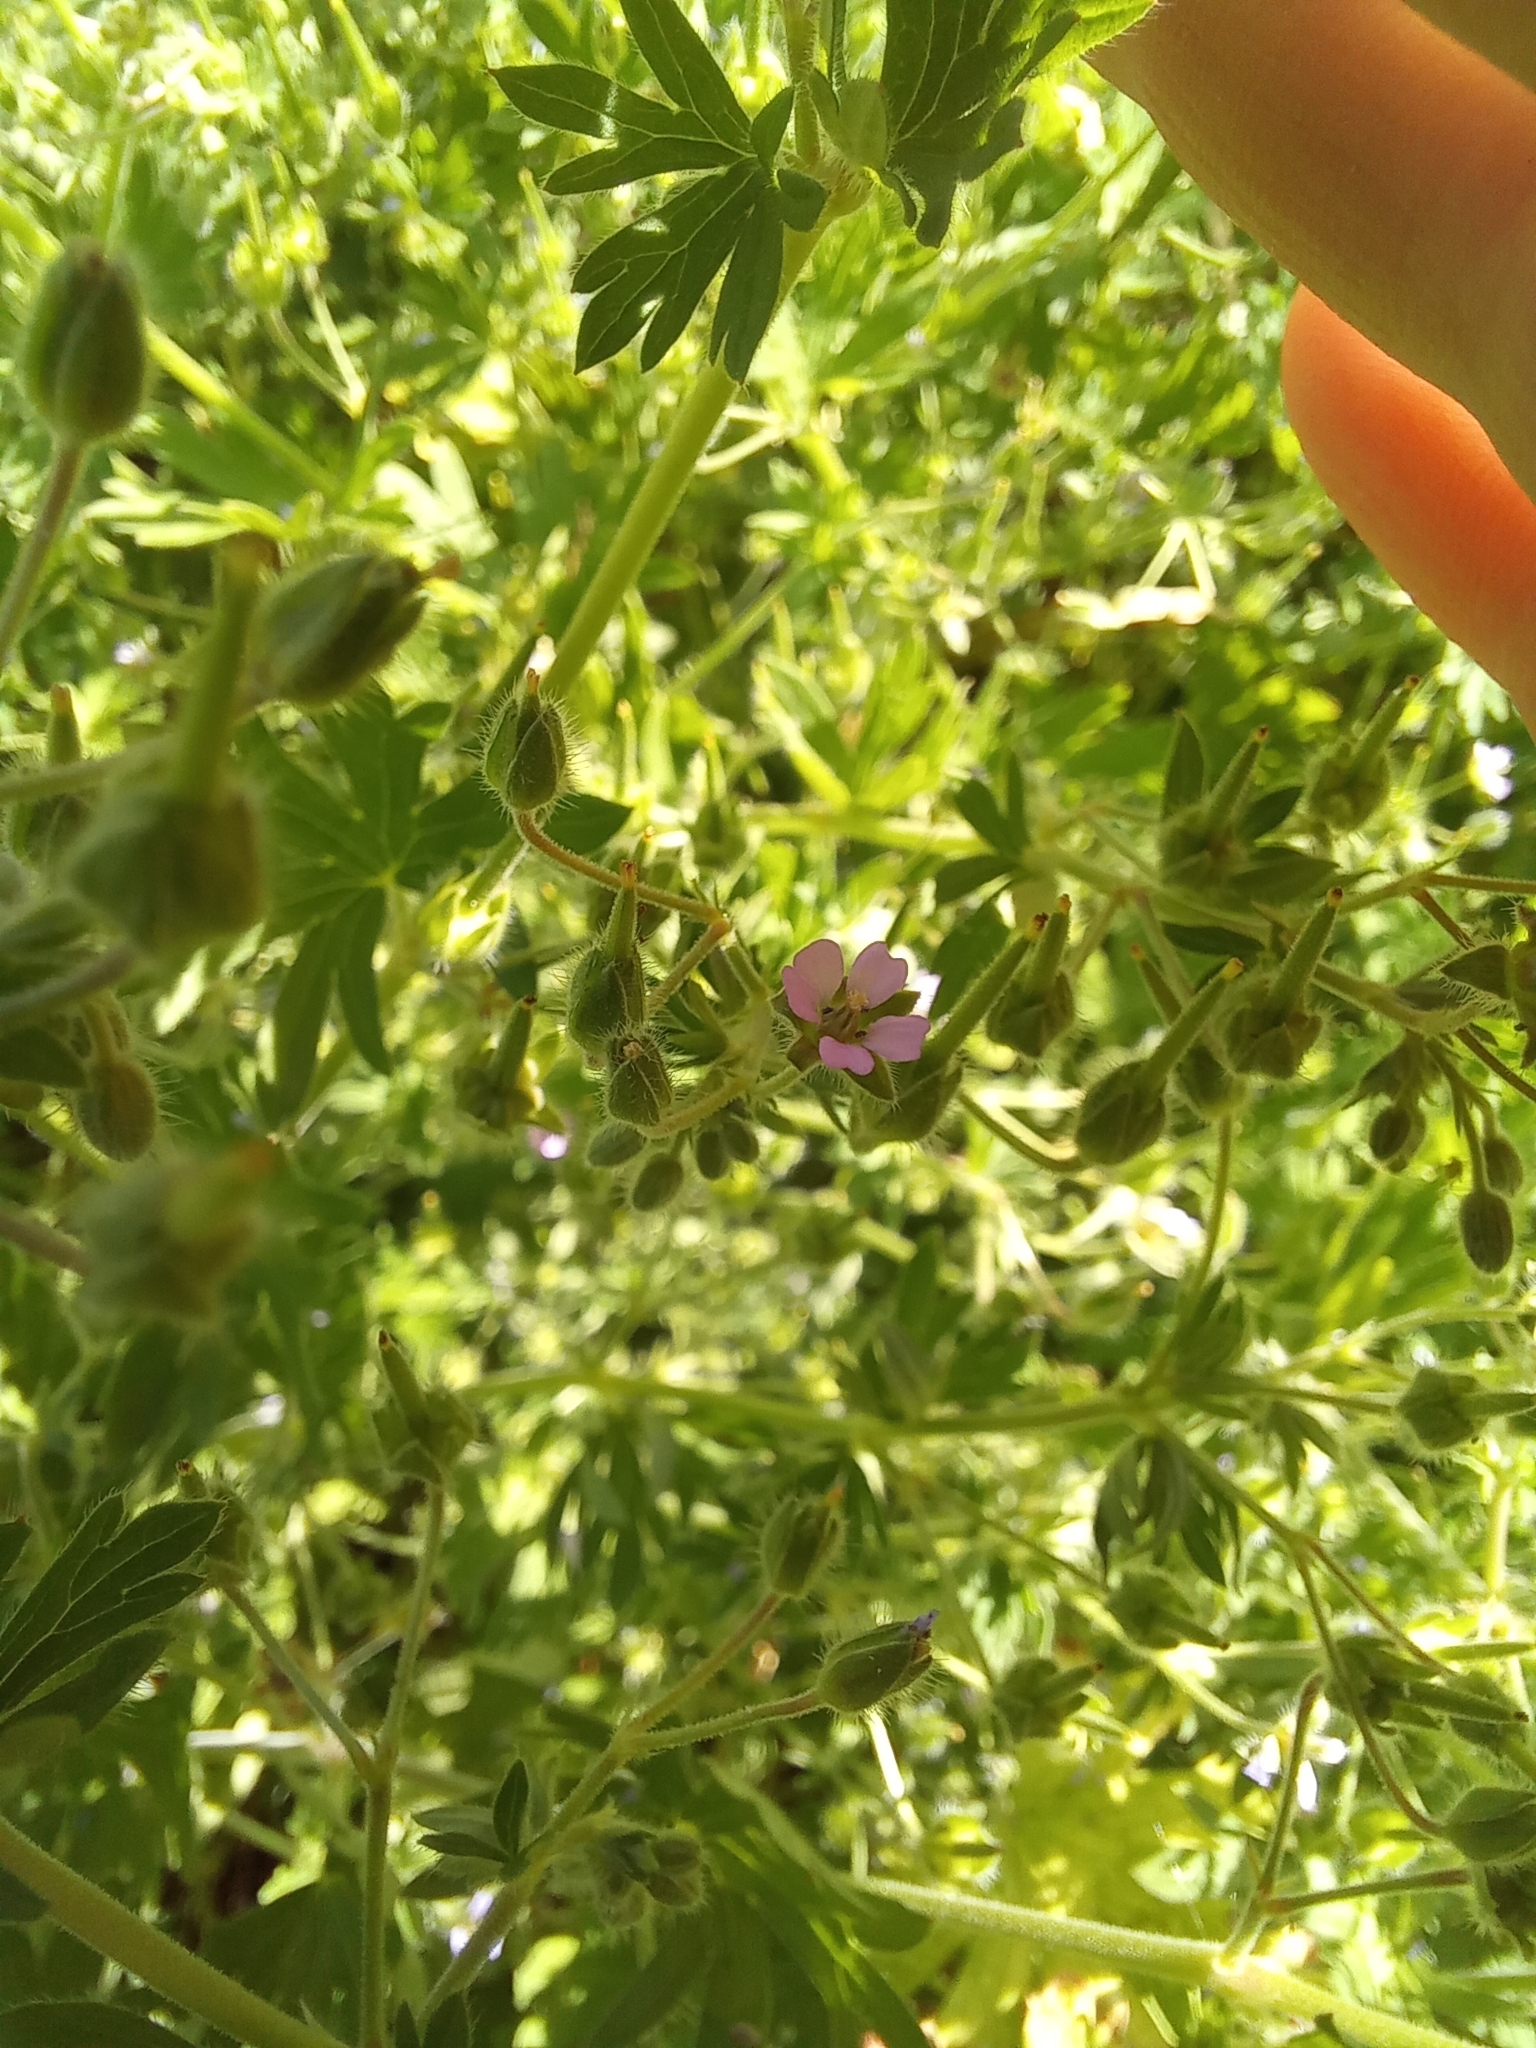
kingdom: Plantae
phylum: Tracheophyta
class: Magnoliopsida
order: Geraniales
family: Geraniaceae
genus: Geranium
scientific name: Geranium pusillum
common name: Small geranium
